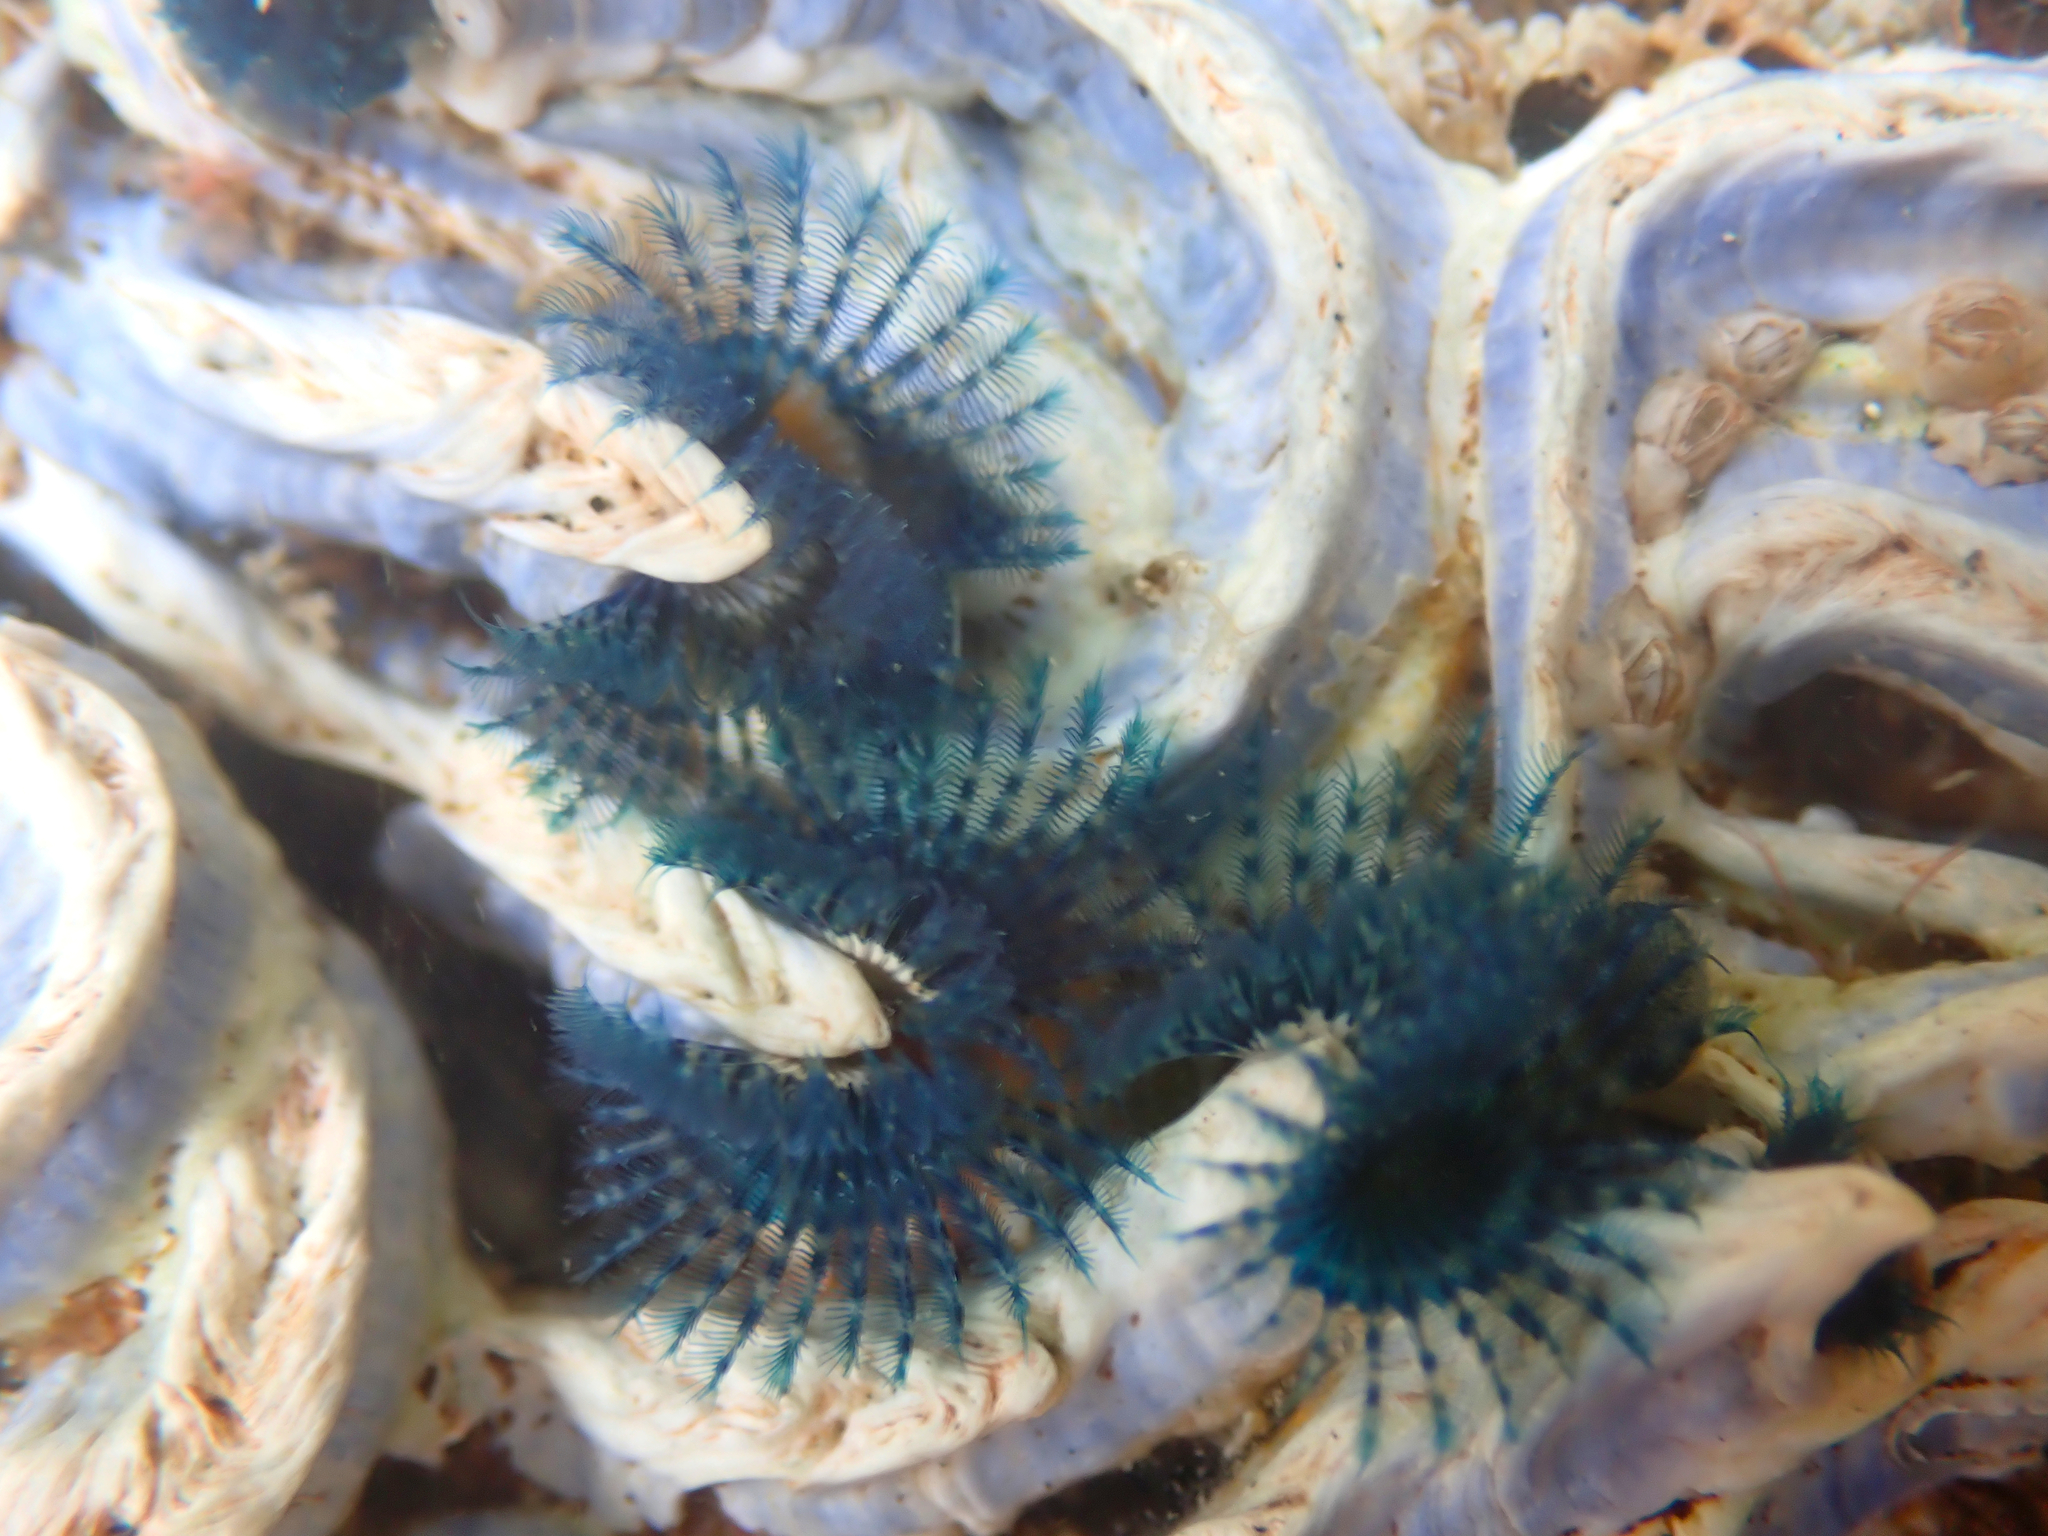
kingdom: Animalia
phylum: Annelida
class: Polychaeta
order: Sabellida
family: Serpulidae
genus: Spirobranchus
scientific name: Spirobranchus cariniferus
